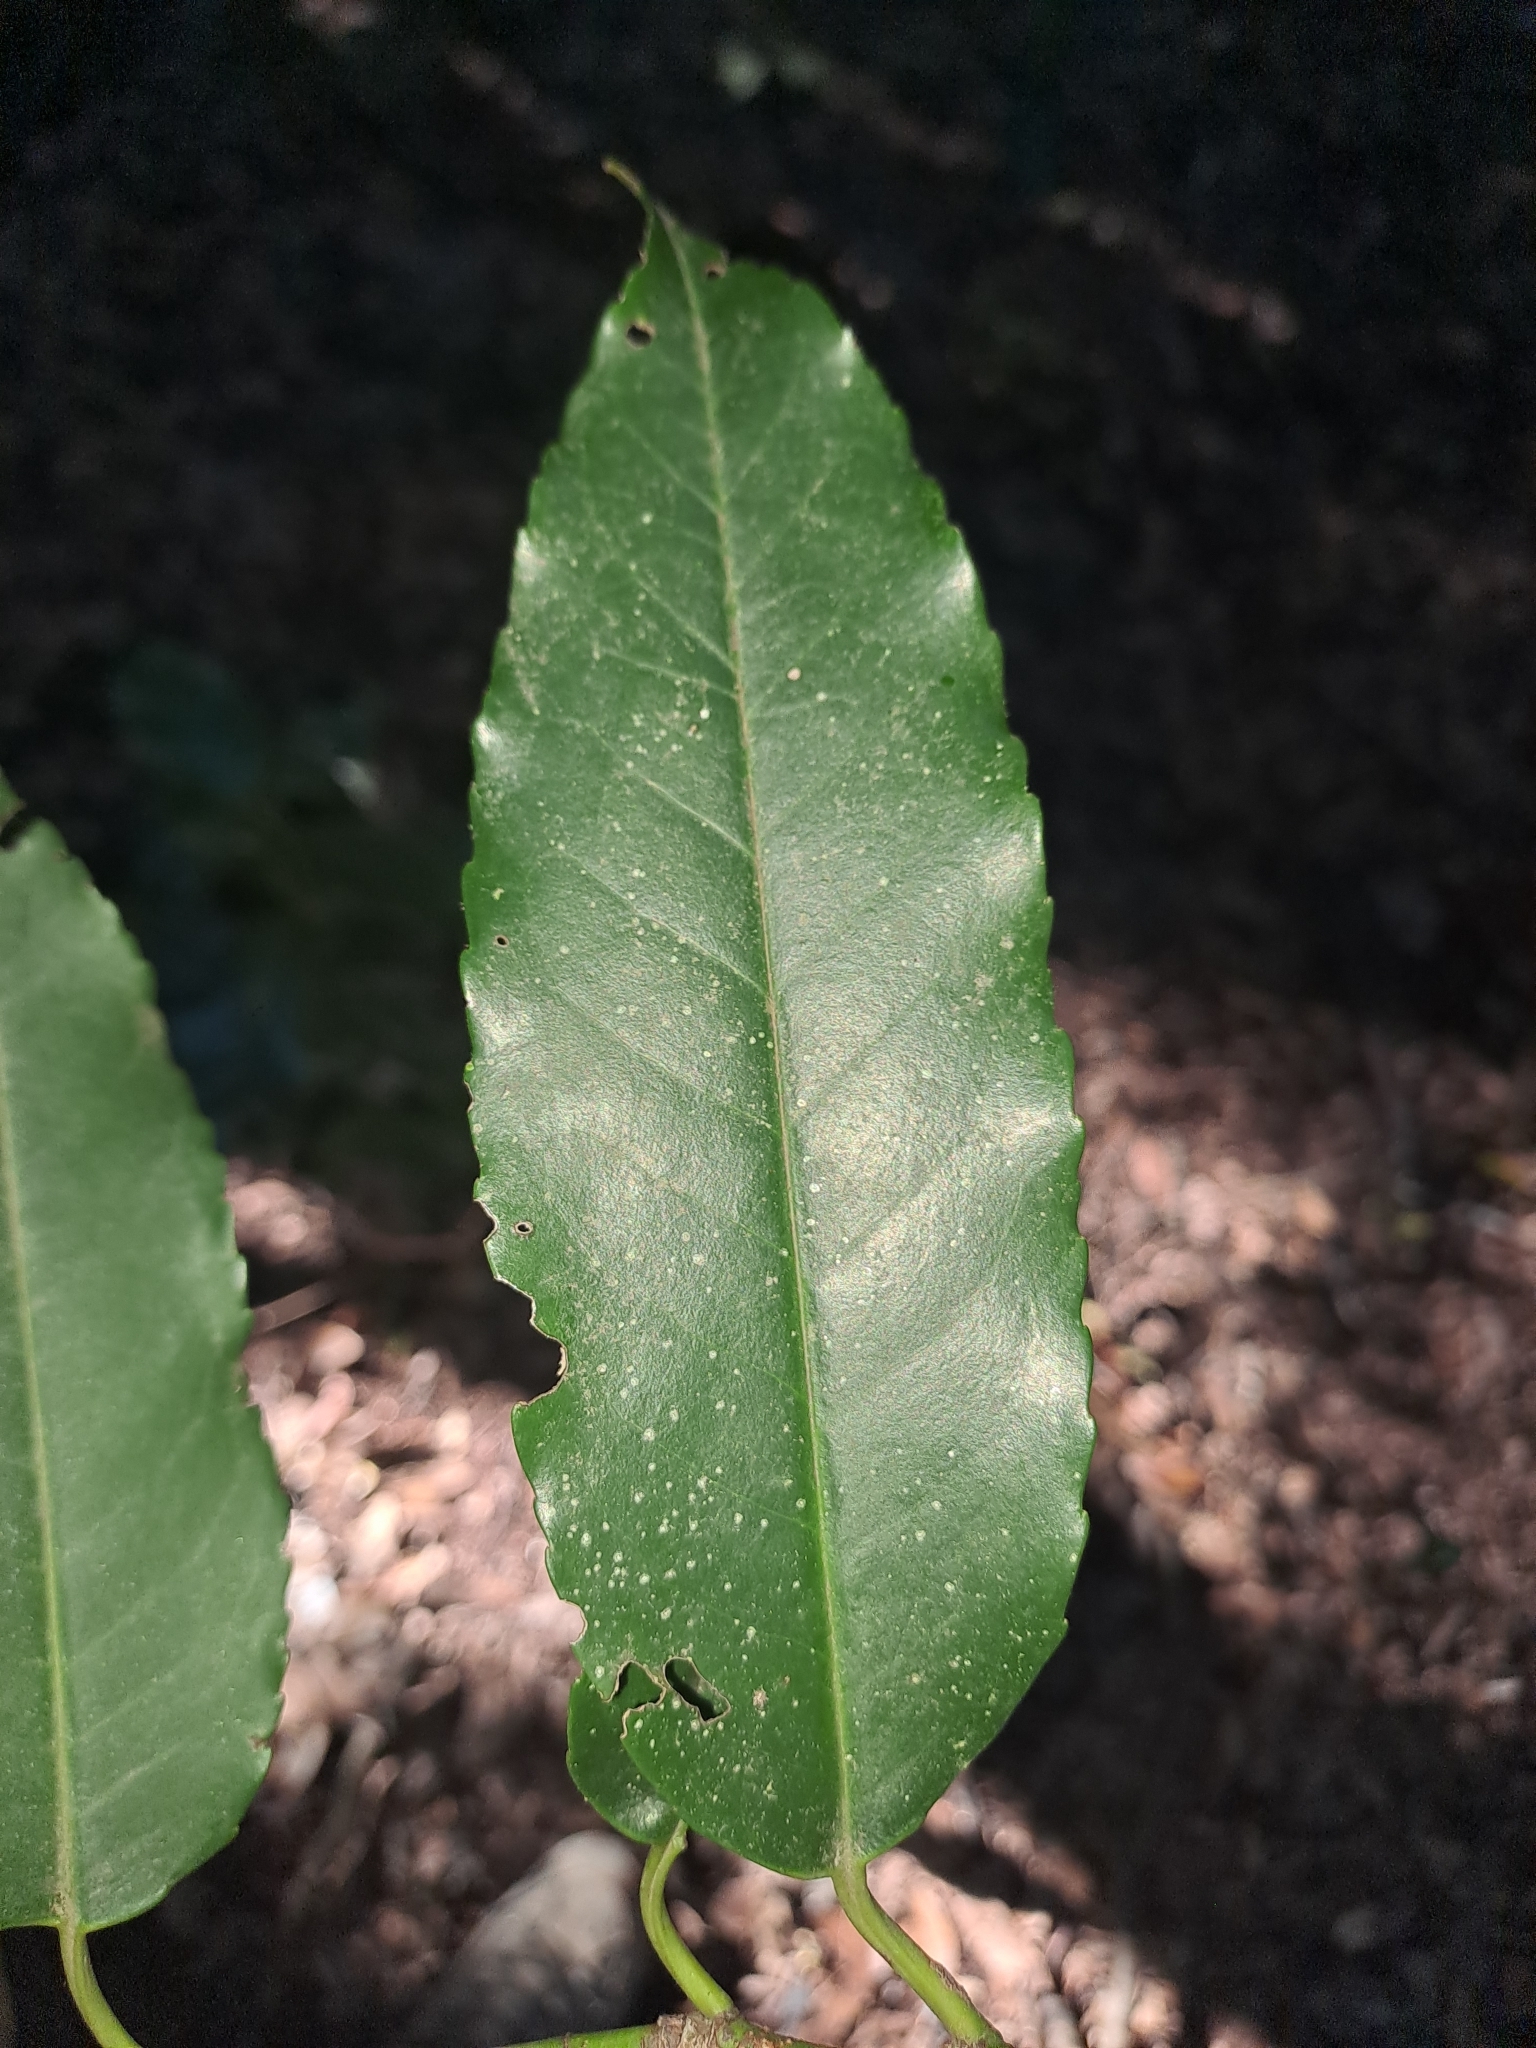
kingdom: Plantae
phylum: Tracheophyta
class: Magnoliopsida
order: Rosales
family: Rosaceae
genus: Prunus
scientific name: Prunus hixa
